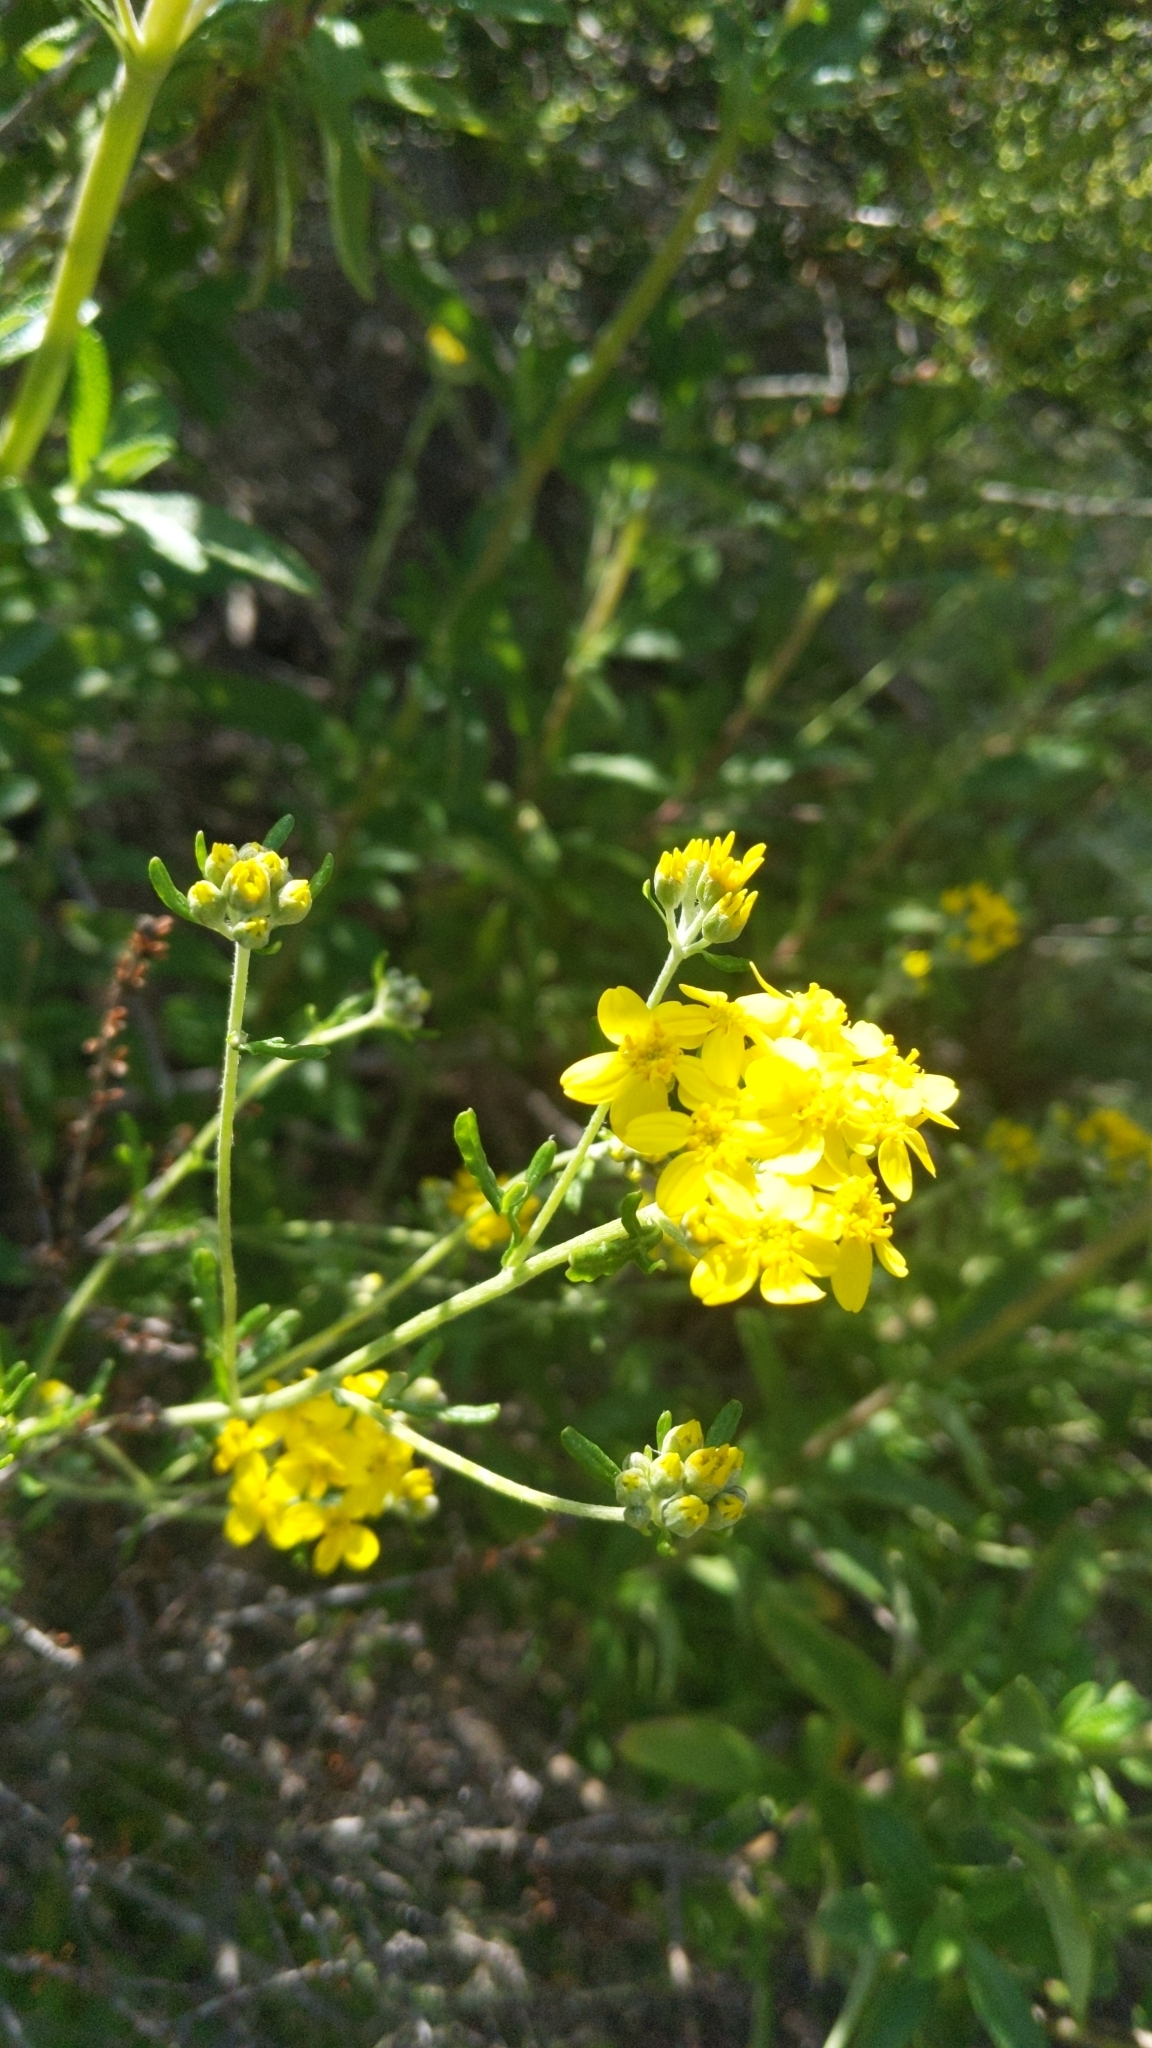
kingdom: Plantae
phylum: Tracheophyta
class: Magnoliopsida
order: Asterales
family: Asteraceae
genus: Eriophyllum
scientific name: Eriophyllum confertiflorum
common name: Golden-yarrow
